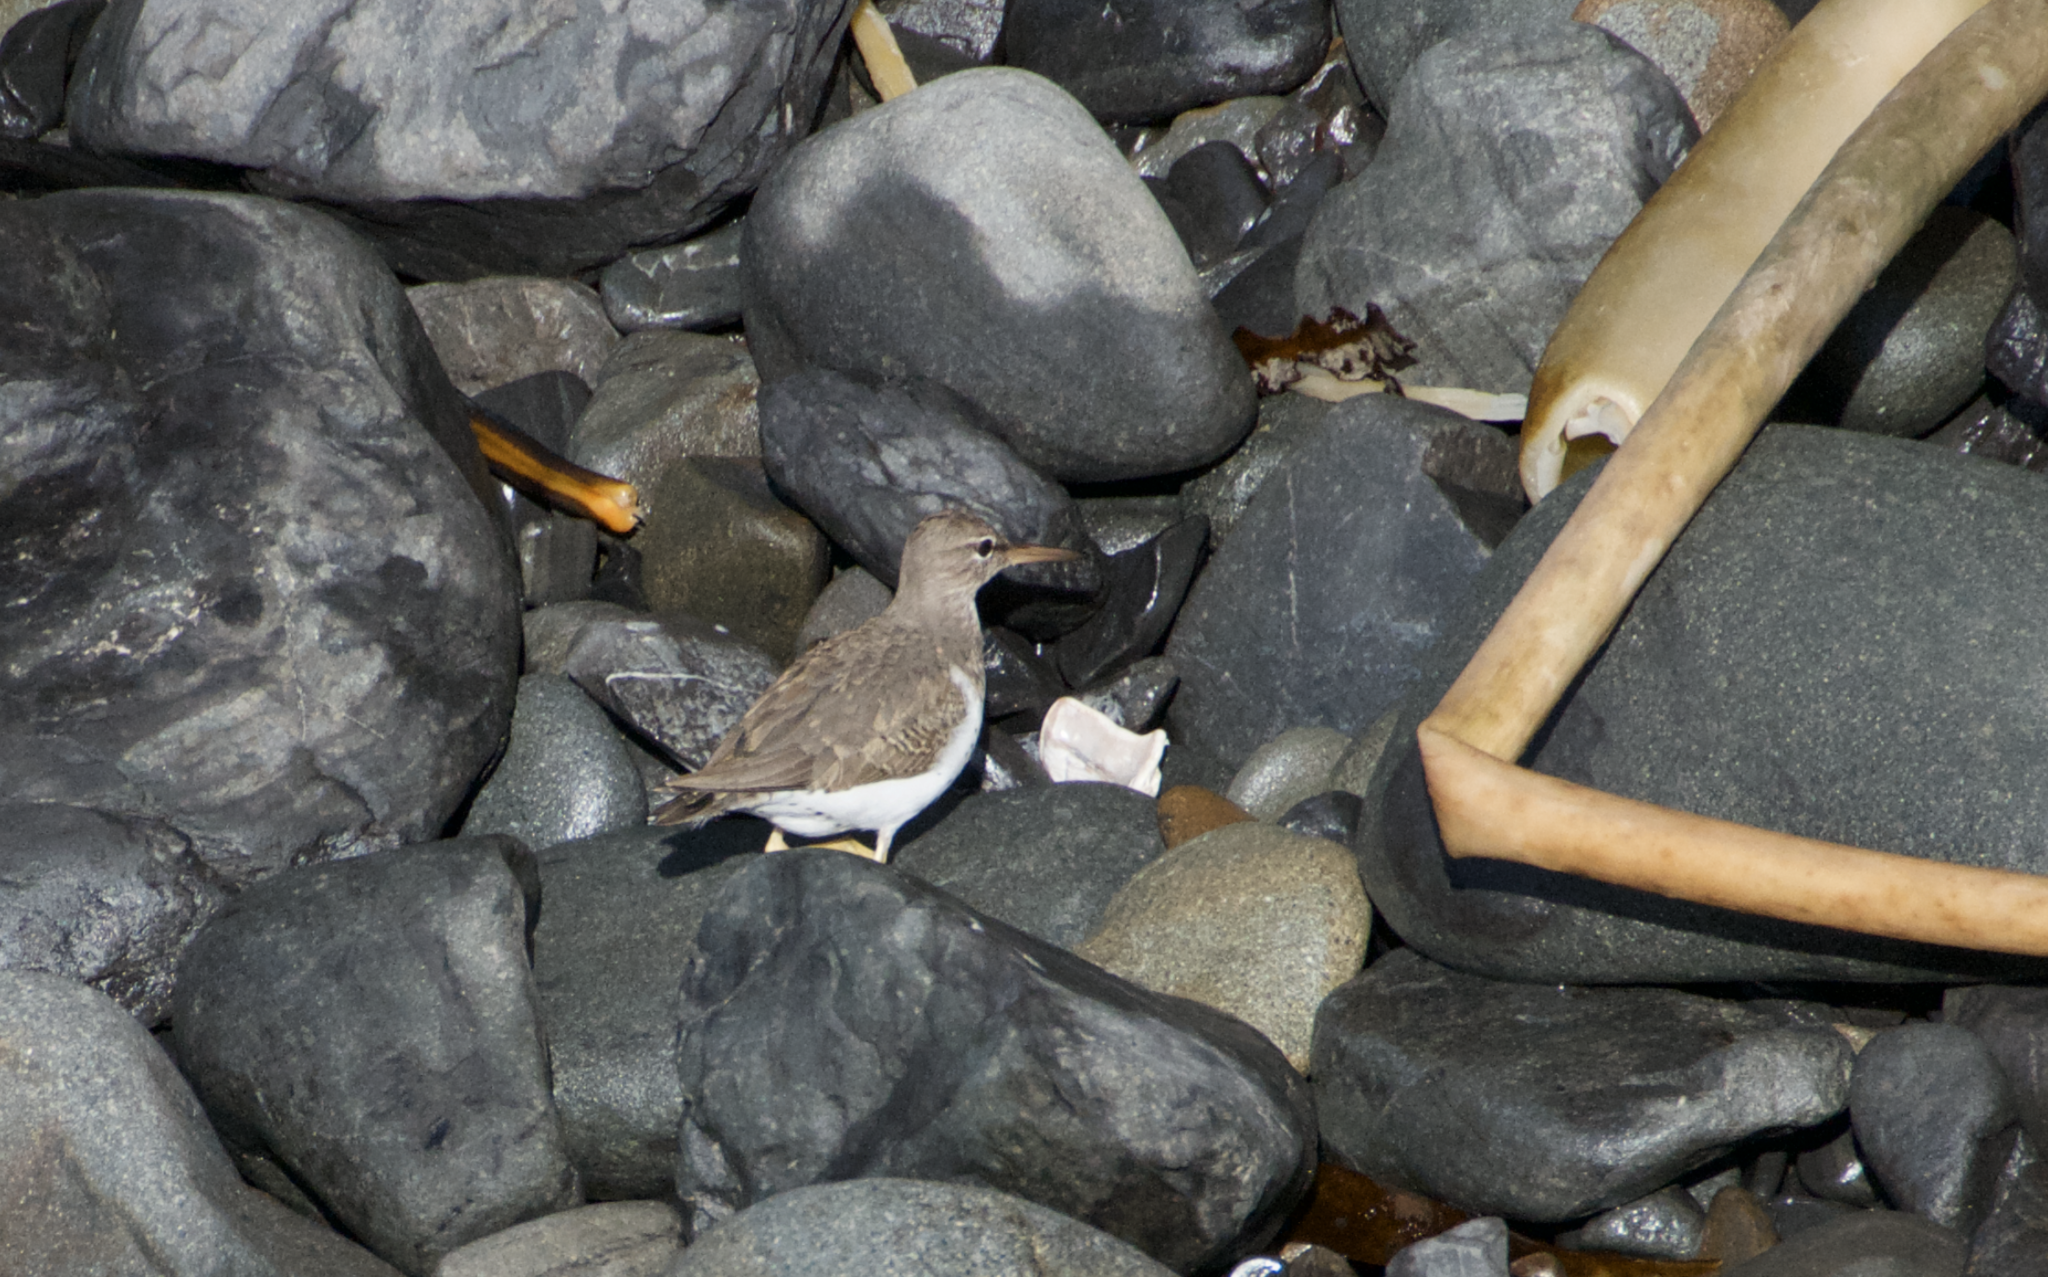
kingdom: Animalia
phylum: Chordata
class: Aves
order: Charadriiformes
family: Scolopacidae
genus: Actitis
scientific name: Actitis macularius
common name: Spotted sandpiper
